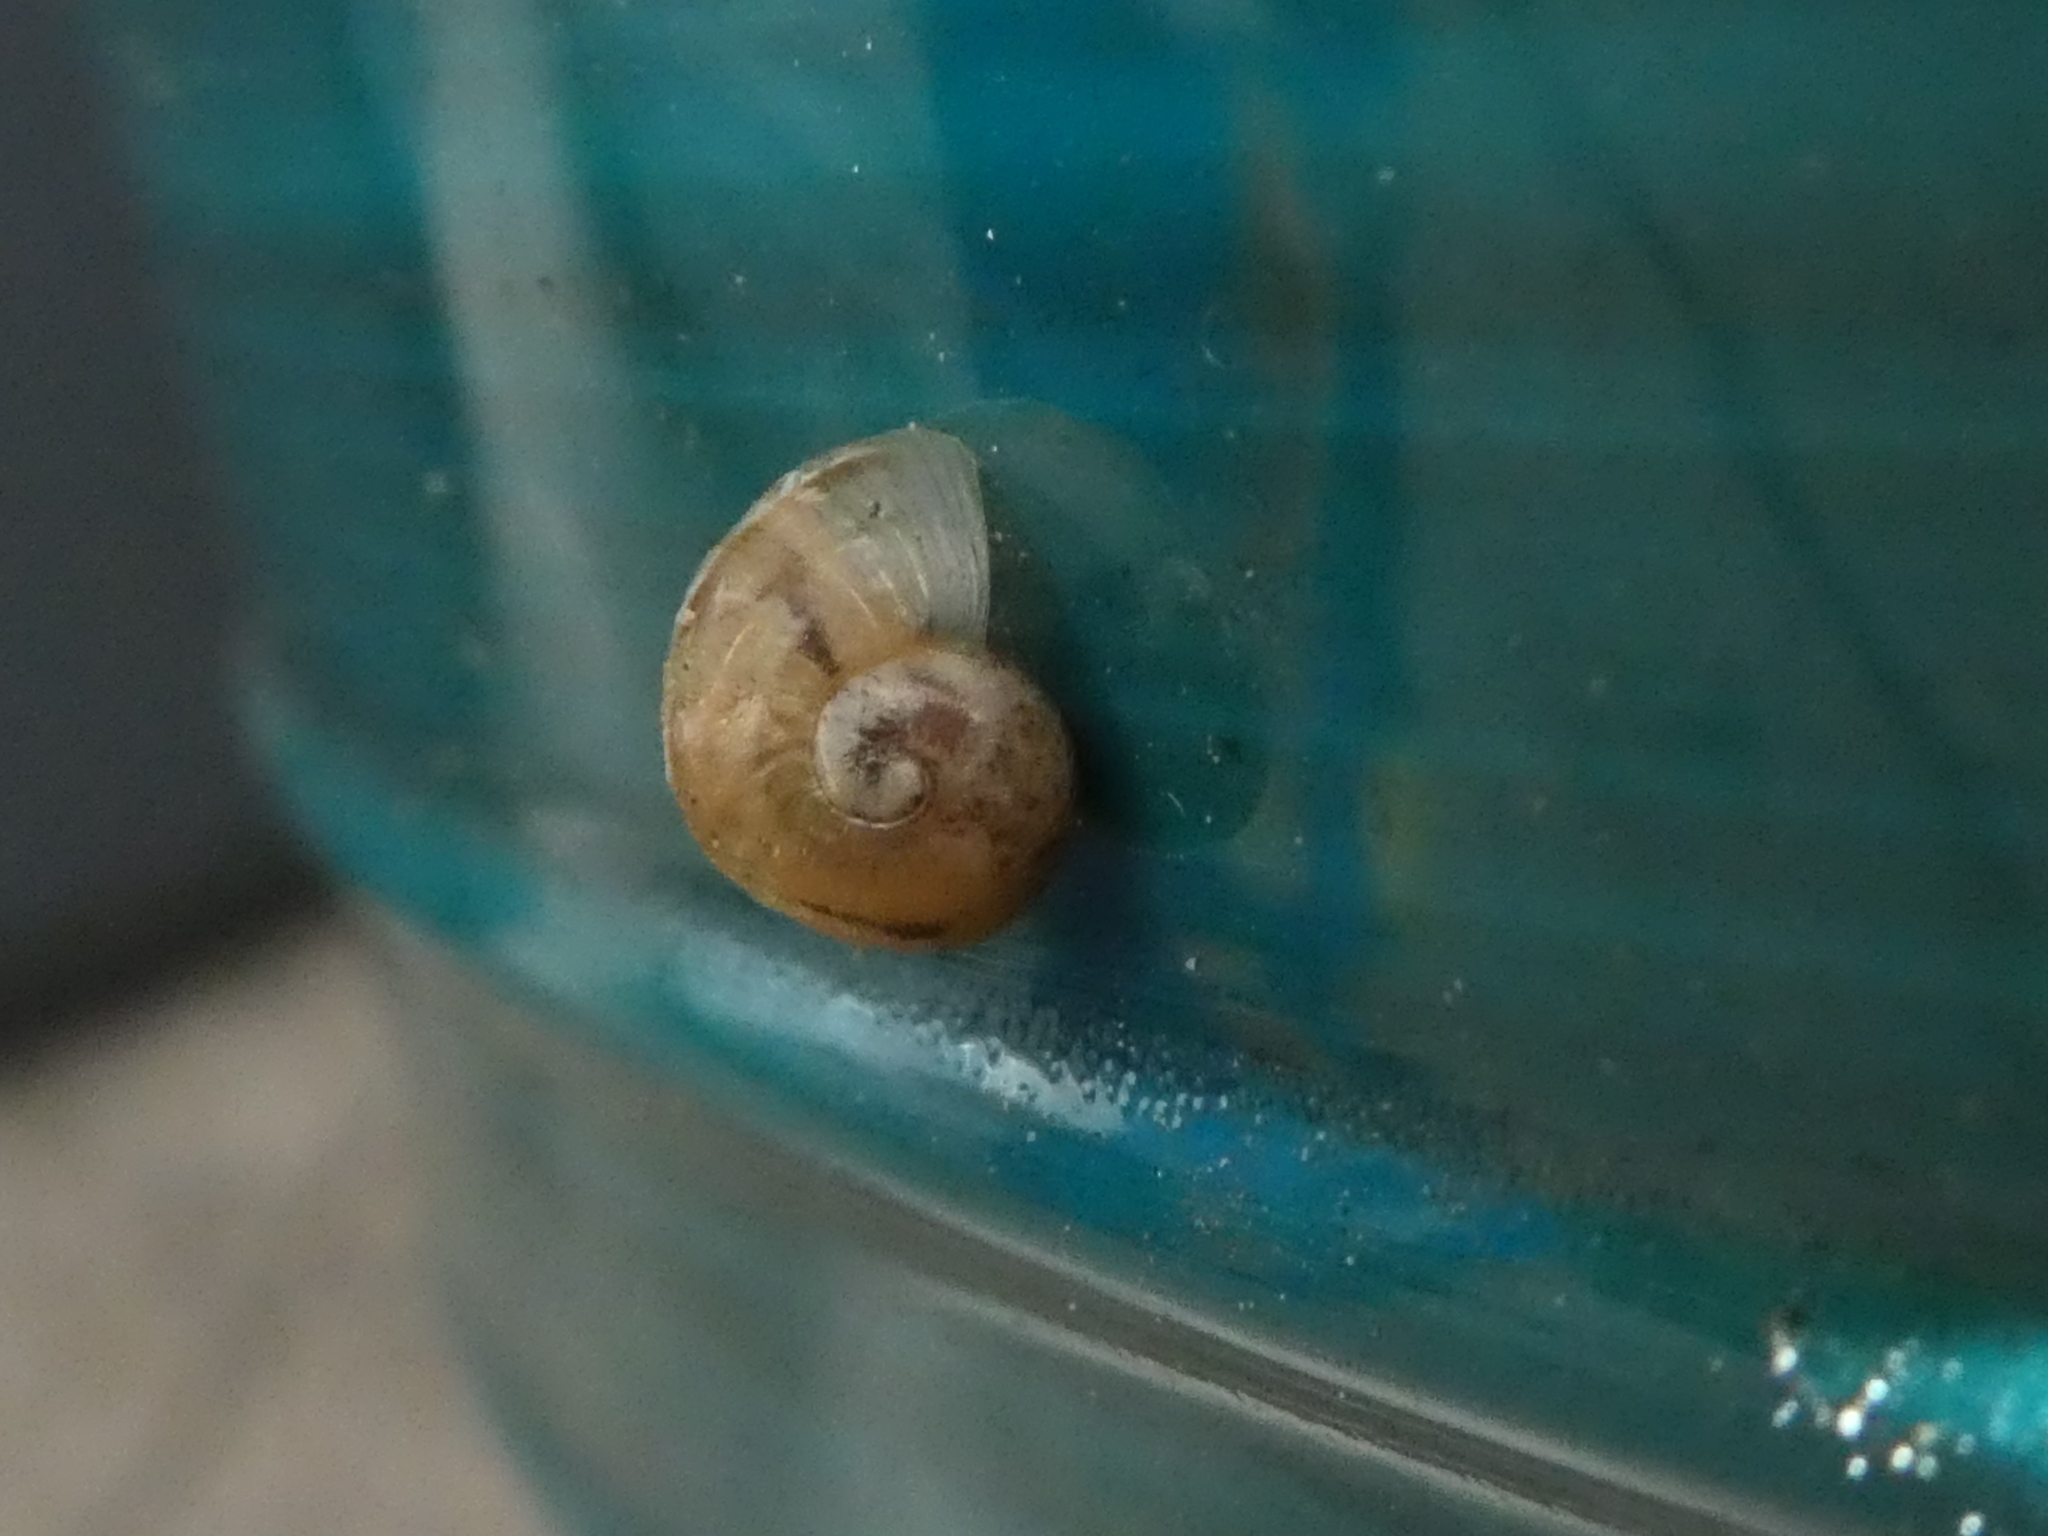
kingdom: Animalia
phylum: Mollusca
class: Gastropoda
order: Stylommatophora
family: Helicidae
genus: Cornu
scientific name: Cornu aspersum
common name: Brown garden snail
